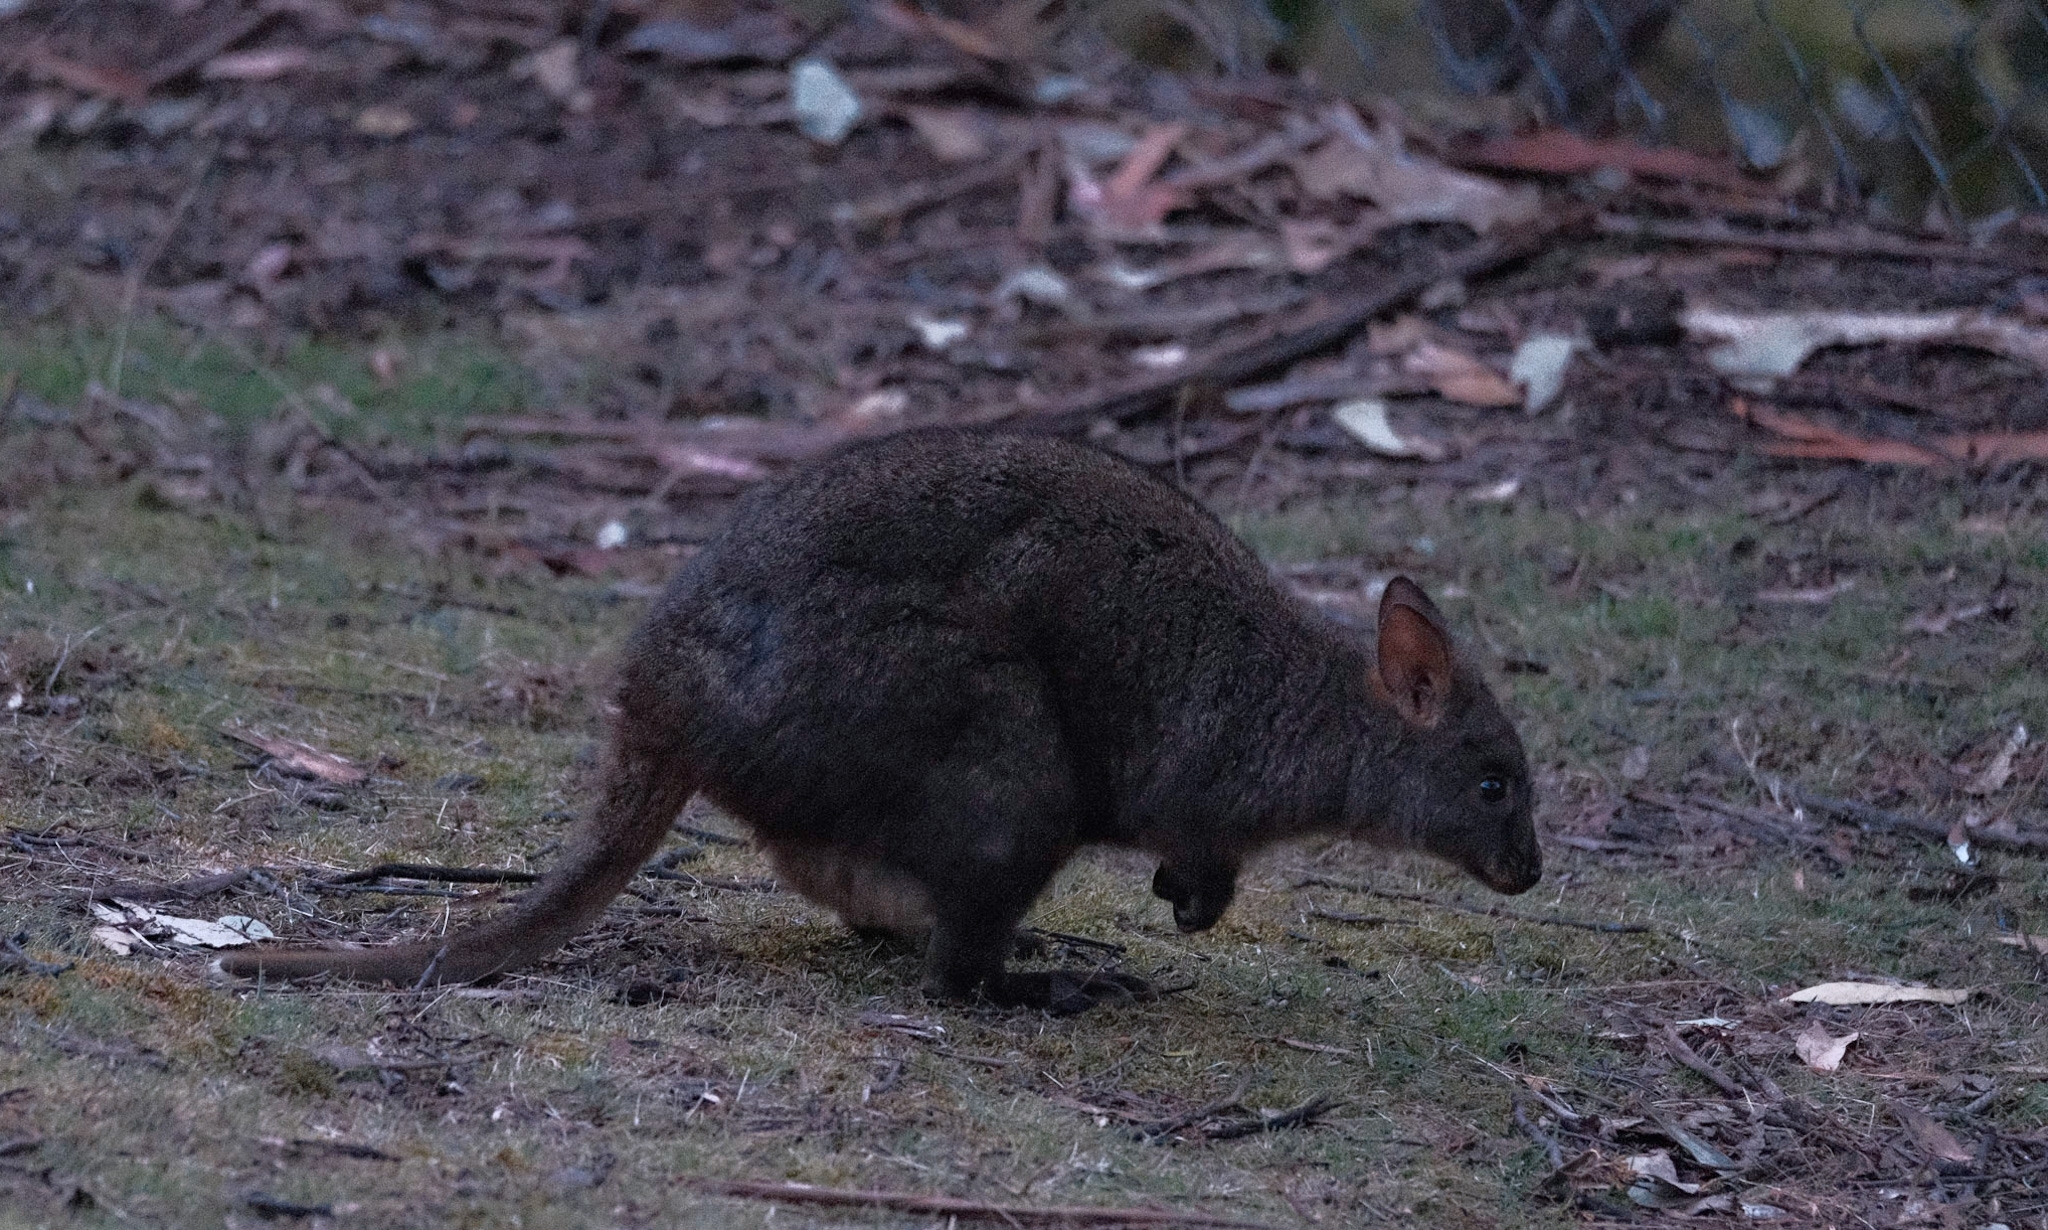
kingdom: Animalia
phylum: Chordata
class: Mammalia
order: Diprotodontia
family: Macropodidae
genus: Thylogale
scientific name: Thylogale billardierii
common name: Tasmanian pademelon
